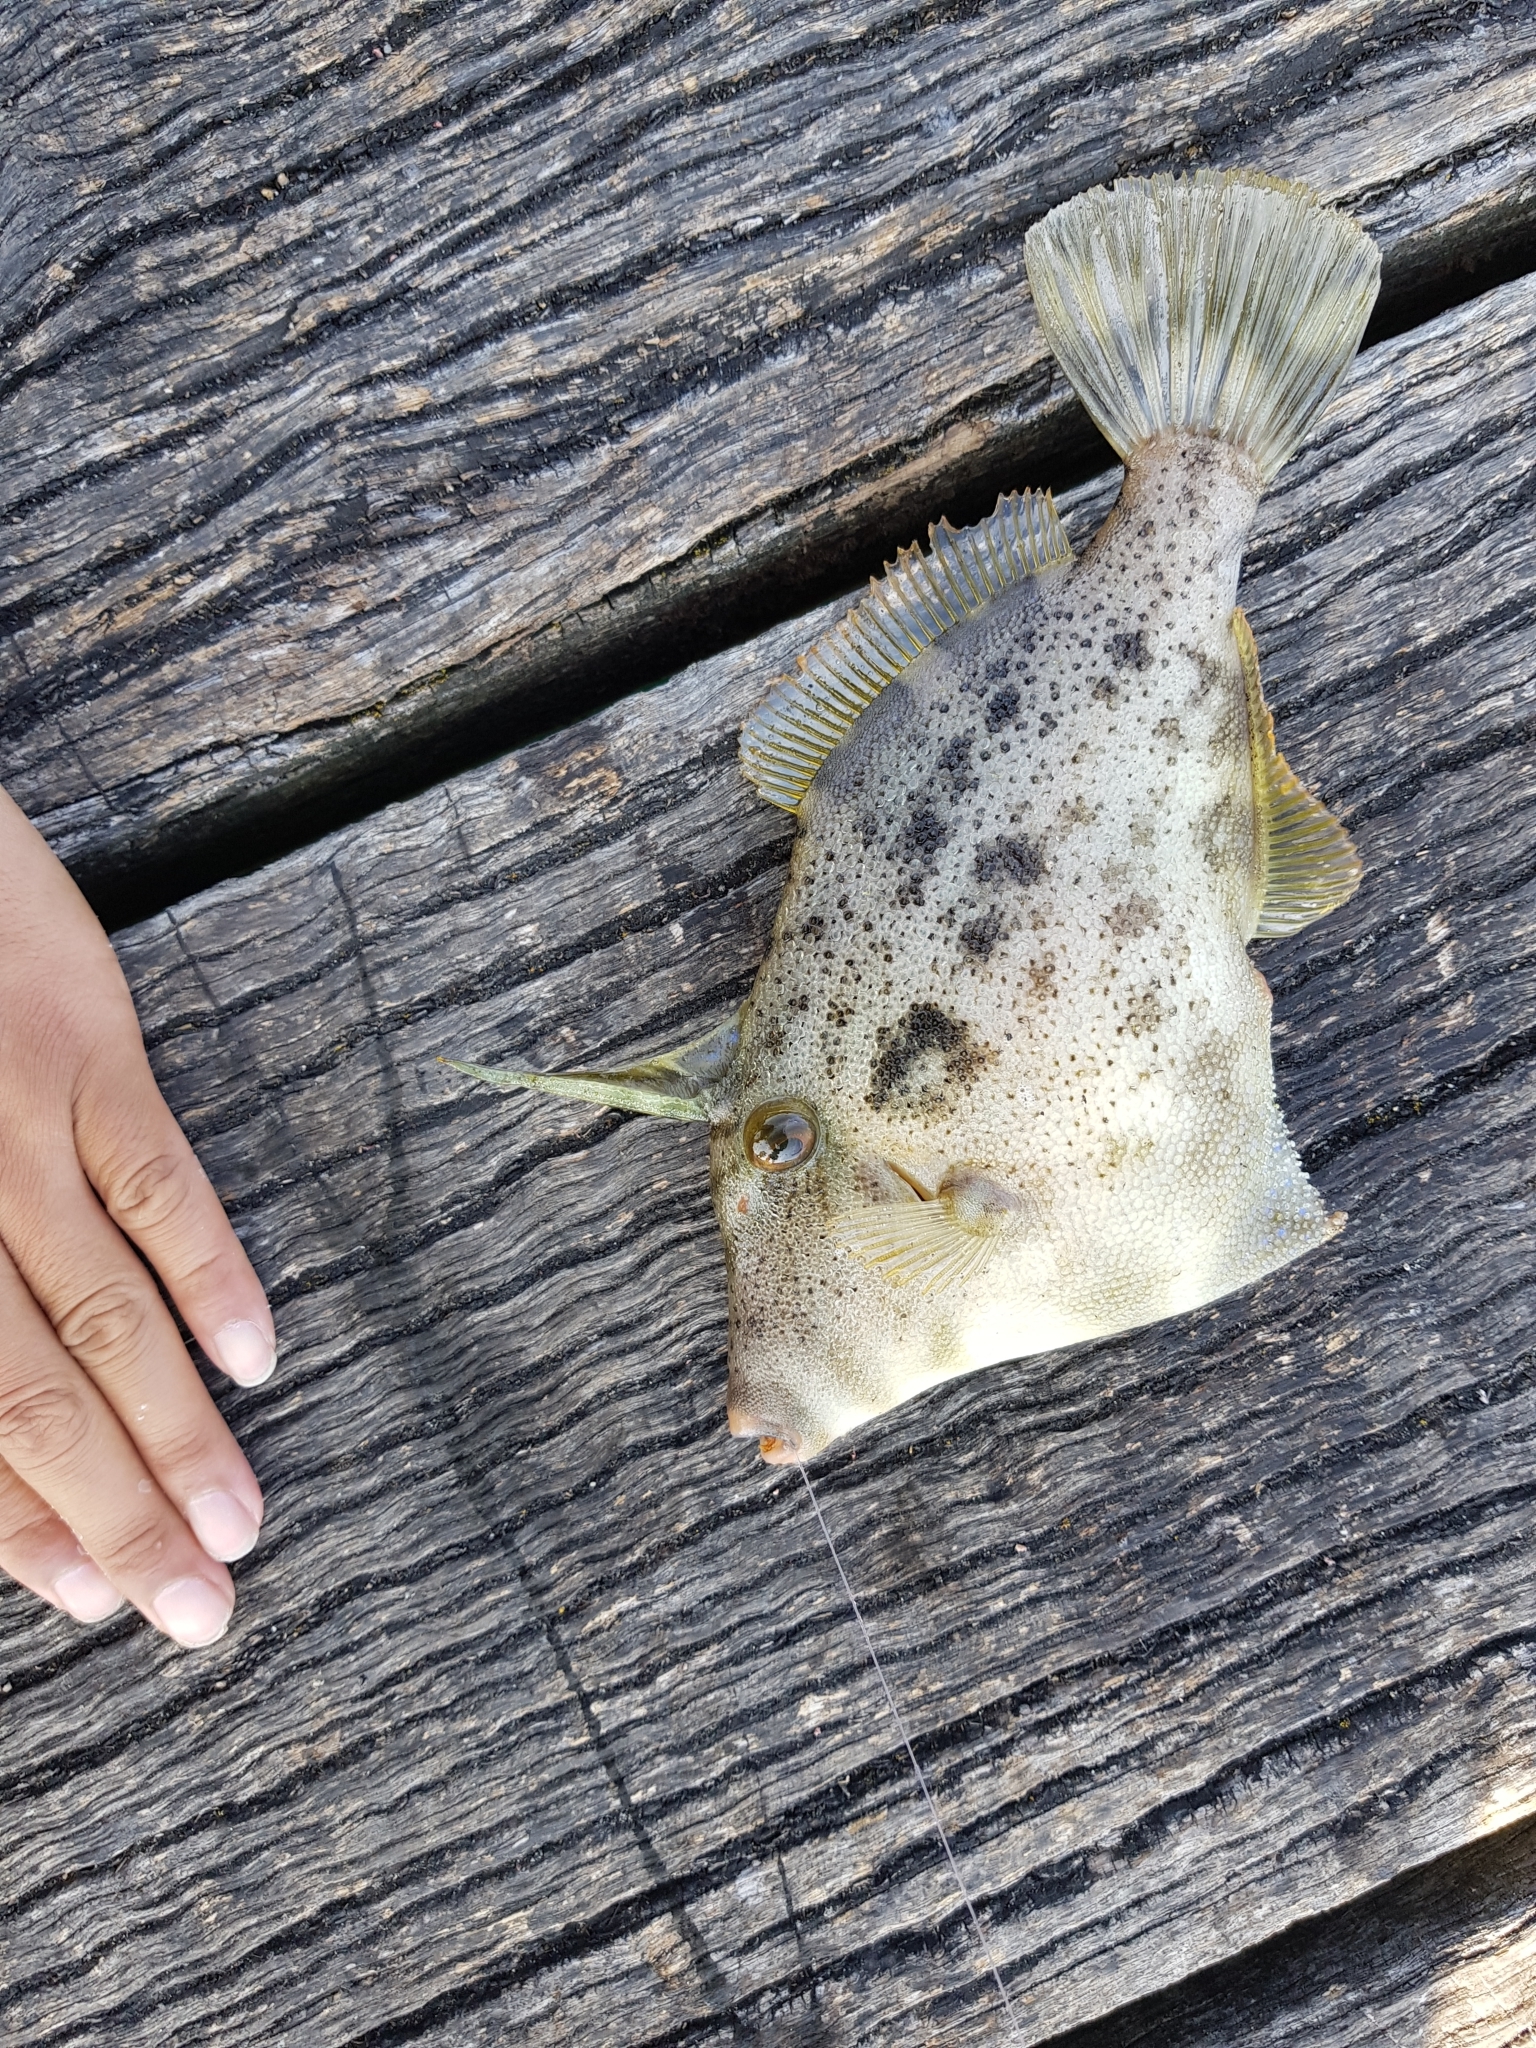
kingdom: Animalia
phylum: Chordata
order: Tetraodontiformes
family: Monacanthidae
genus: Scobinichthys
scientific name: Scobinichthys granulatus
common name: Rough leatherjacket
